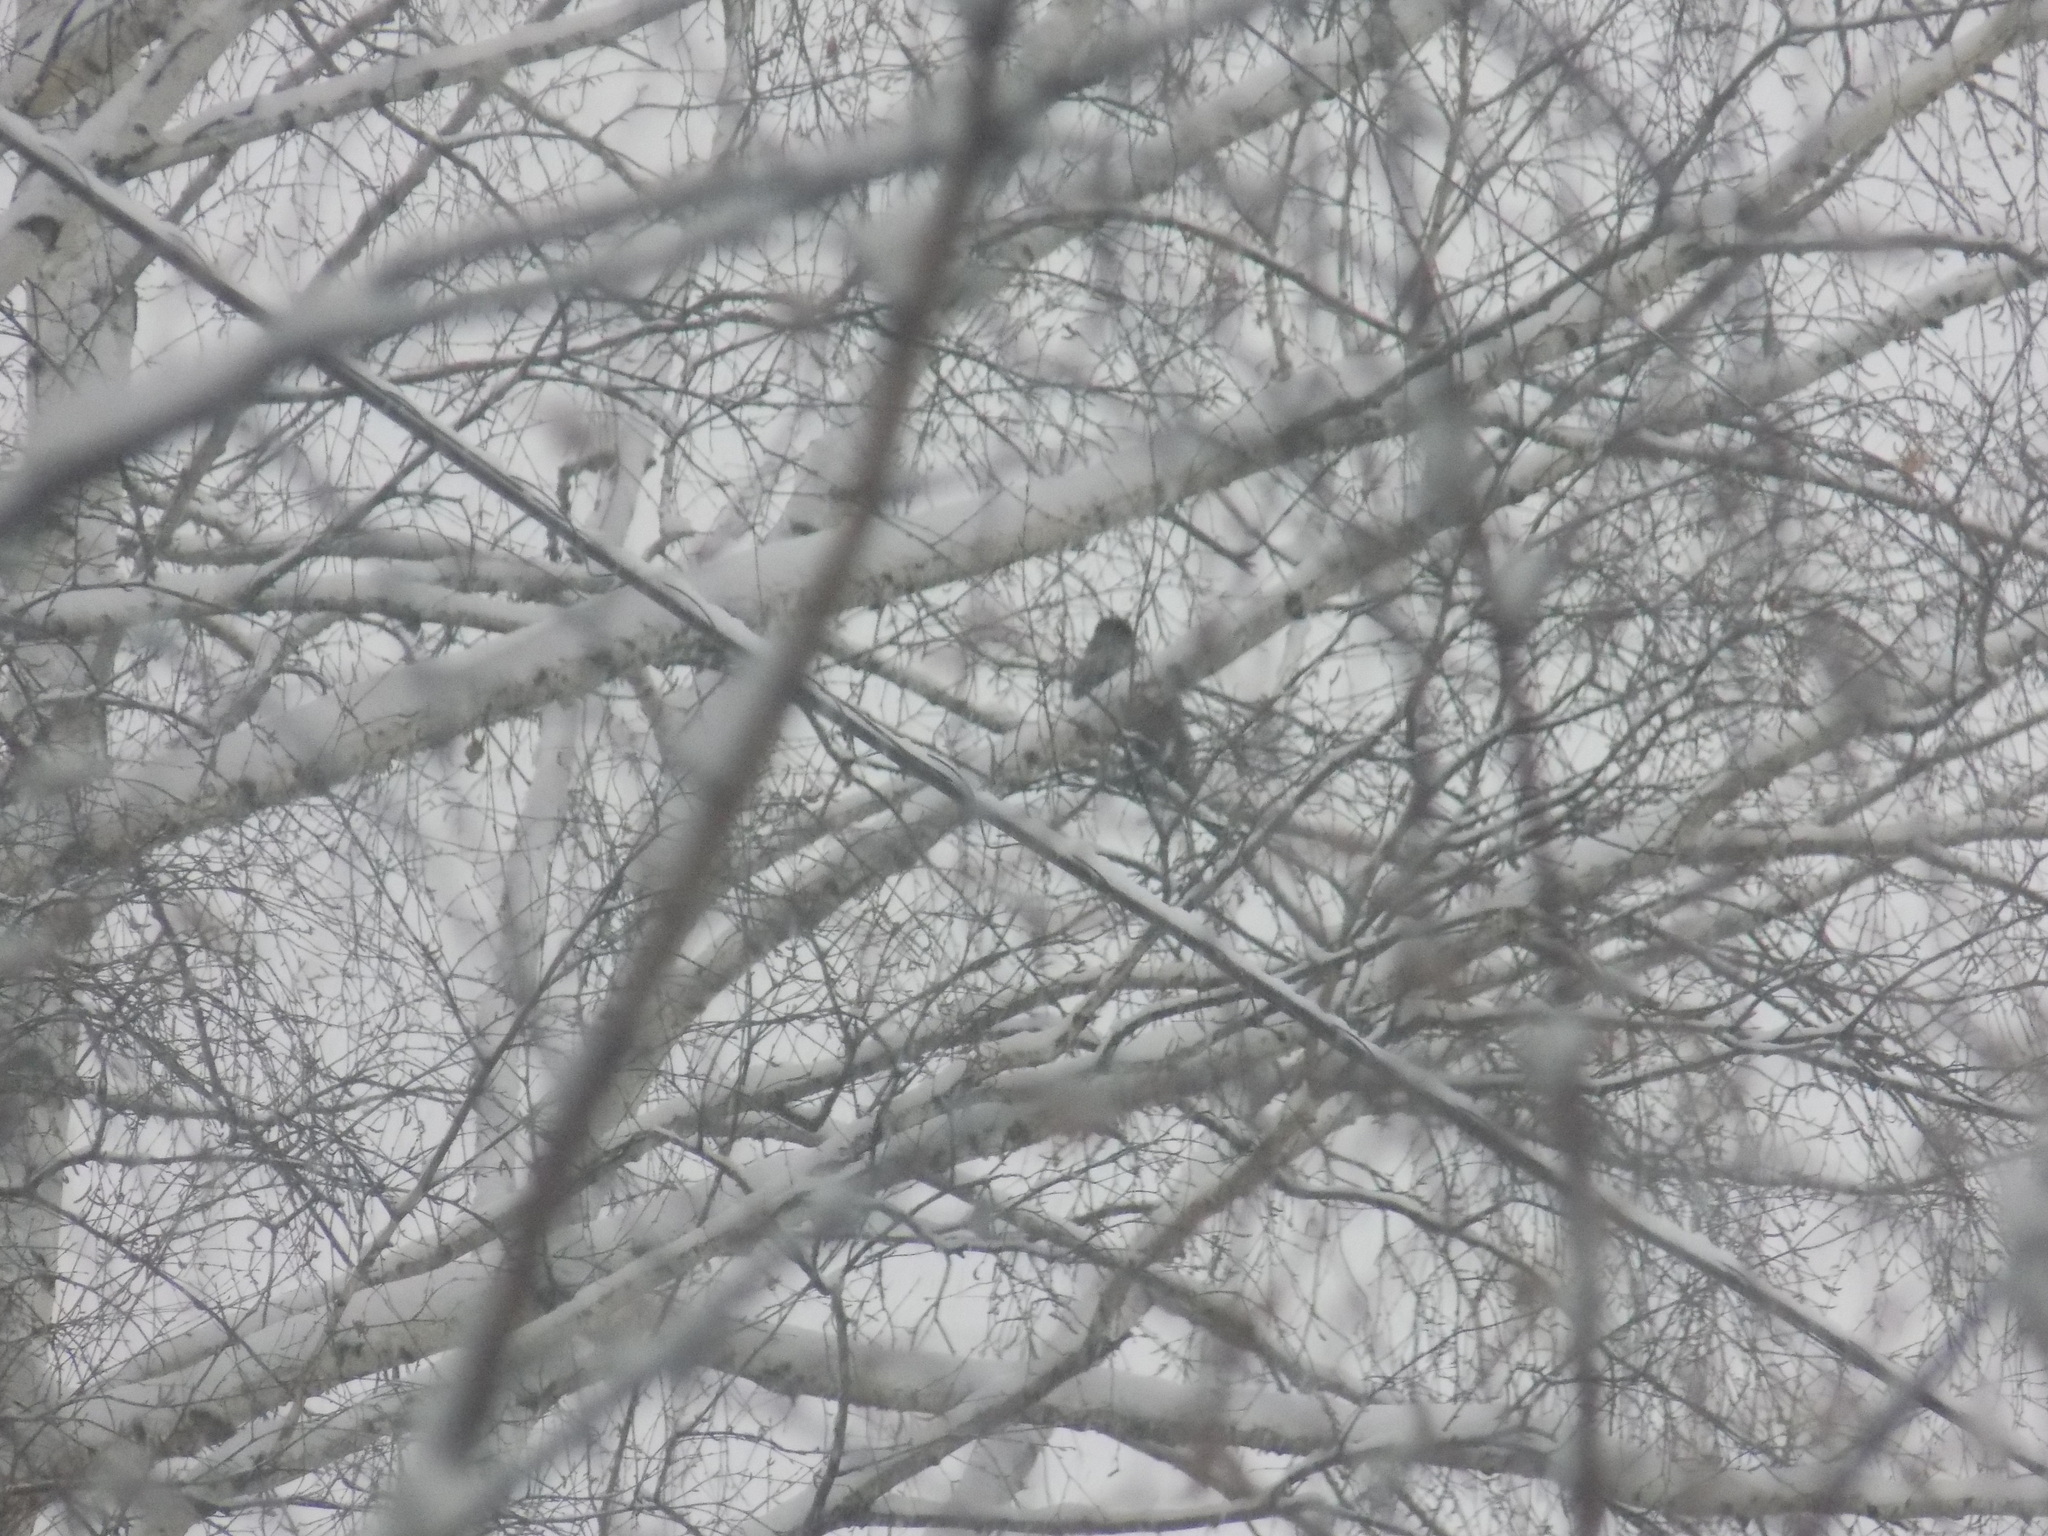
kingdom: Animalia
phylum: Chordata
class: Aves
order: Passeriformes
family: Corvidae
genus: Corvus
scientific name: Corvus cornix
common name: Hooded crow
